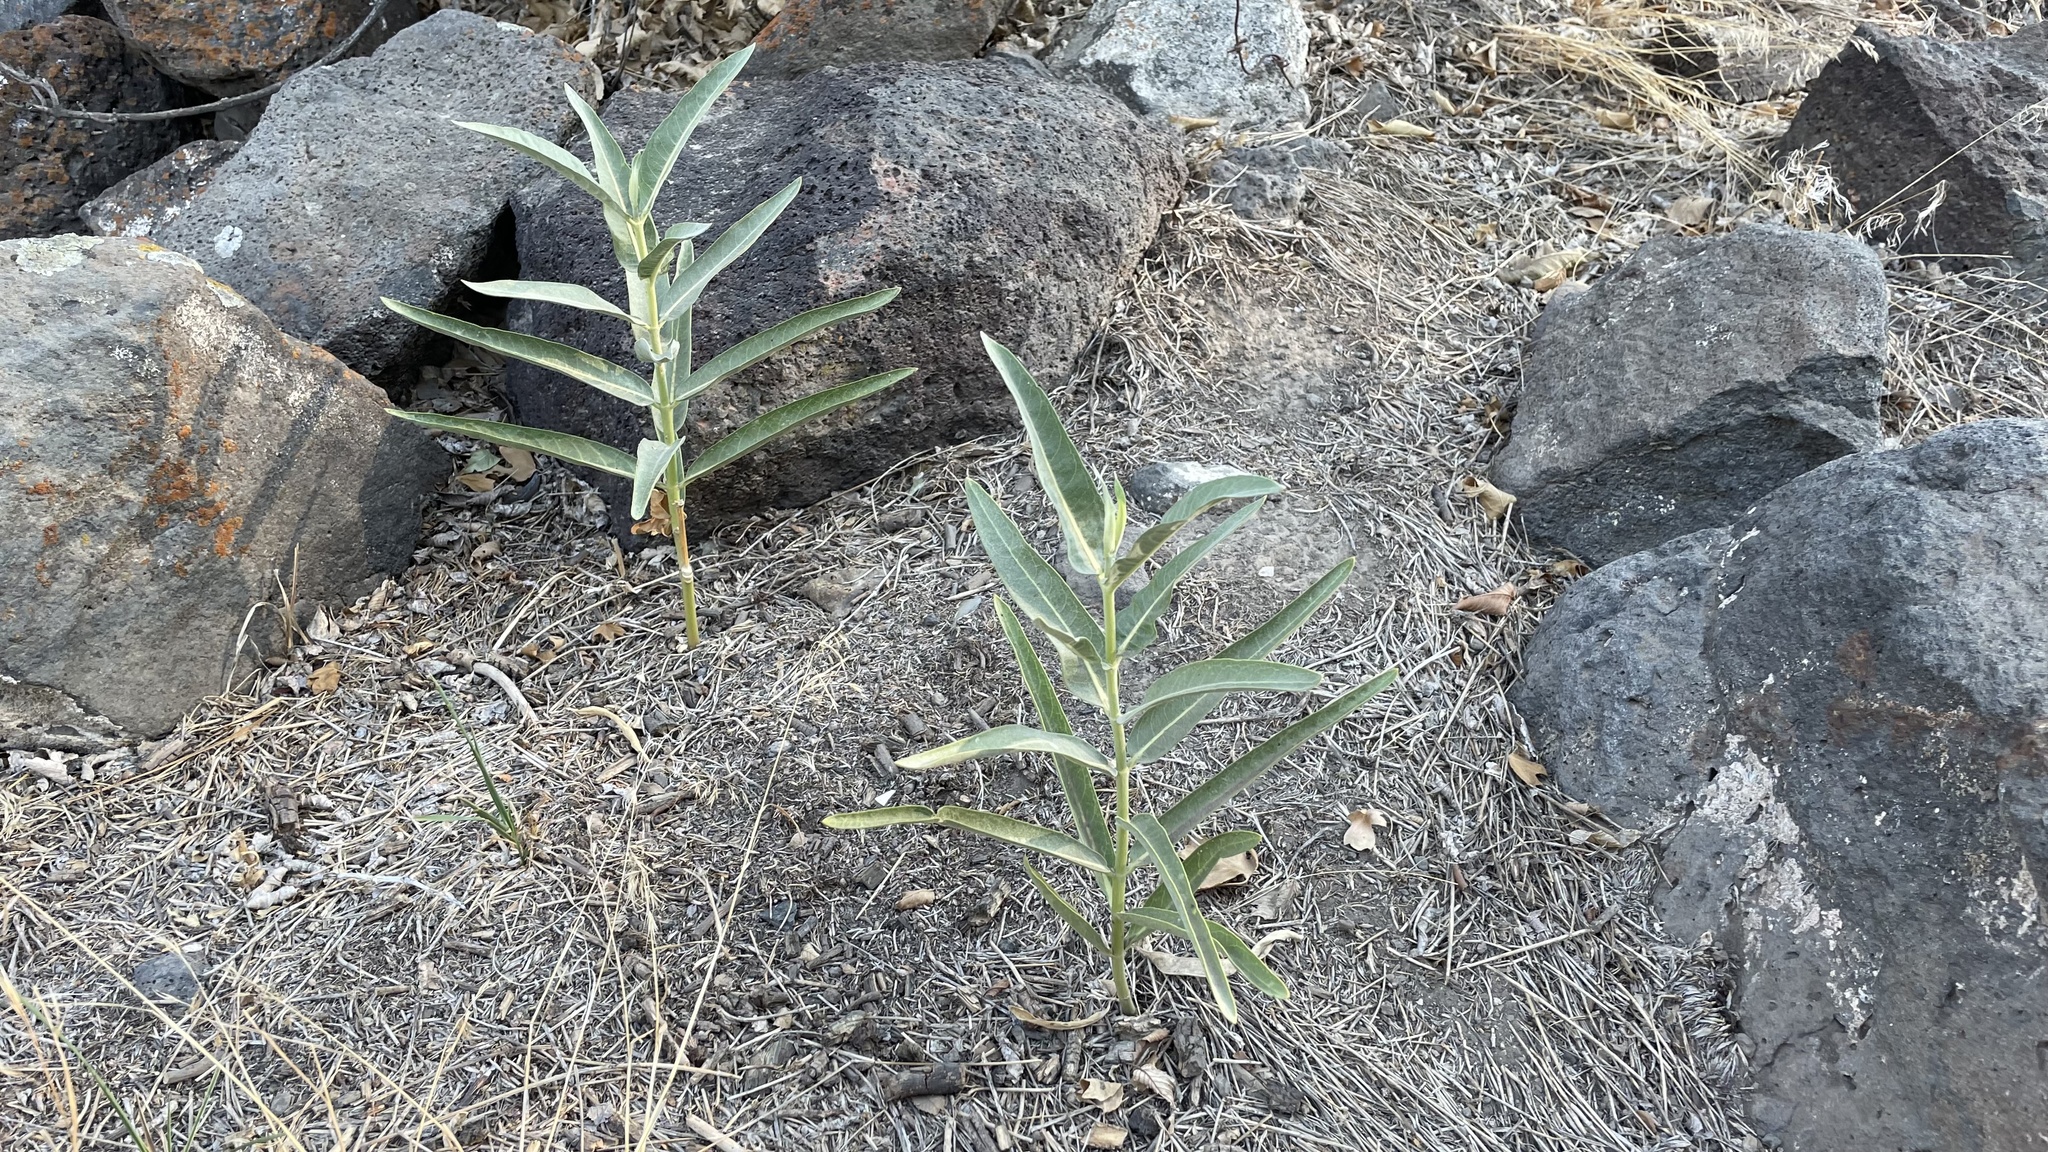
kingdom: Plantae
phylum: Tracheophyta
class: Magnoliopsida
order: Gentianales
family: Apocynaceae
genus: Asclepias
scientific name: Asclepias speciosa
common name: Showy milkweed
